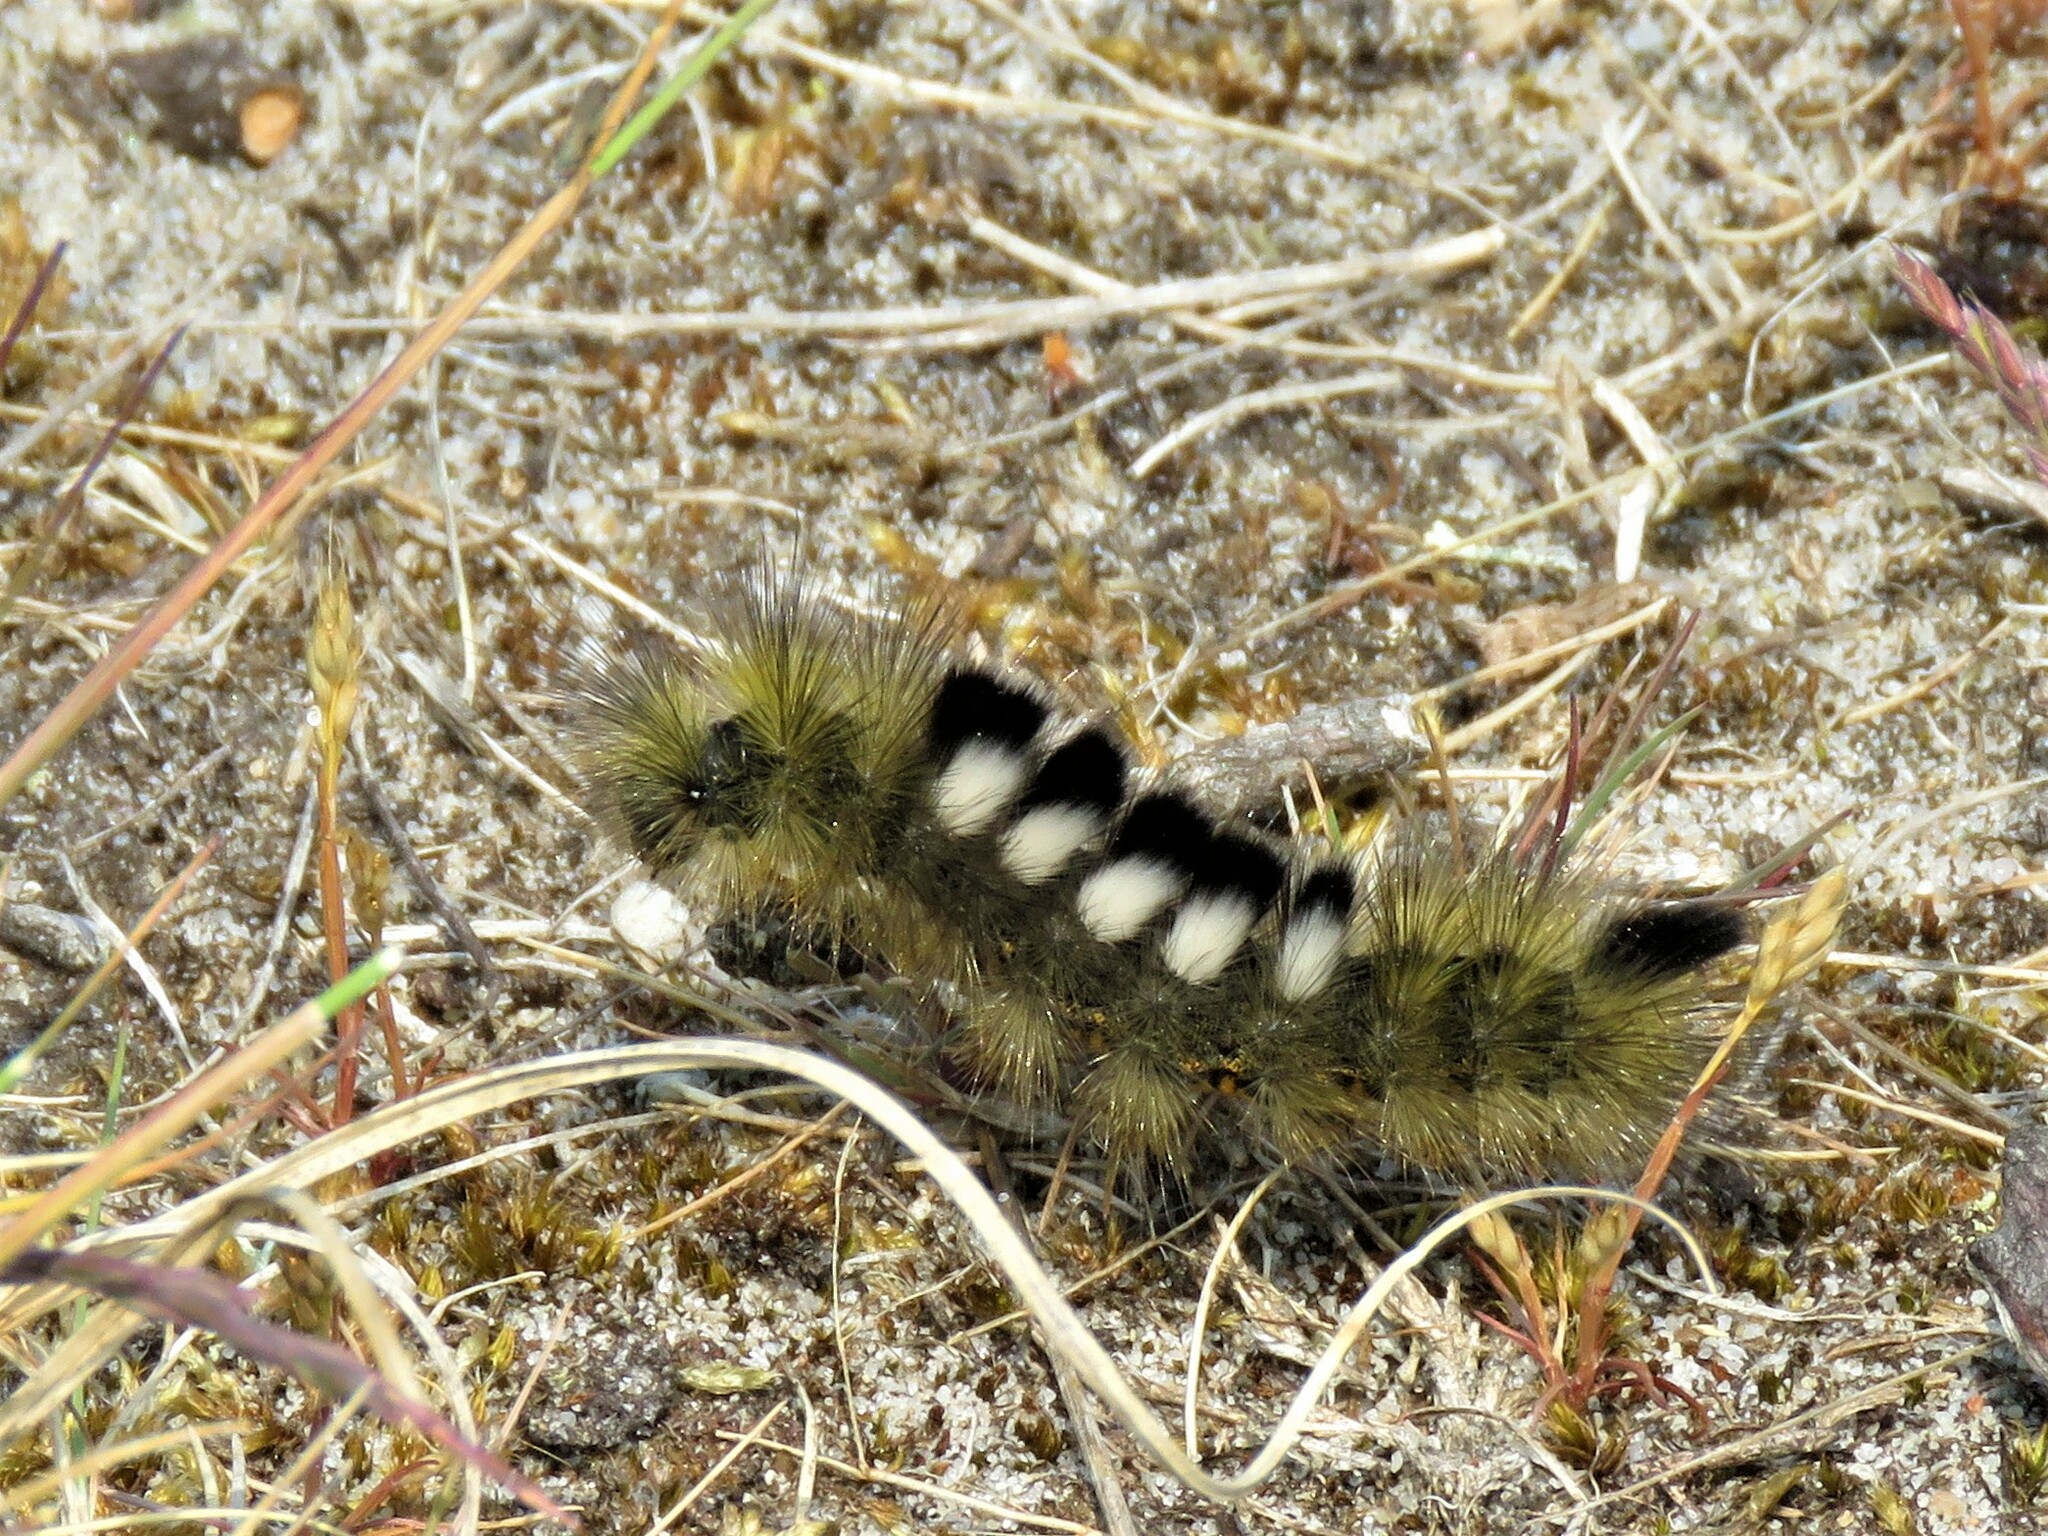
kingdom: Animalia
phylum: Arthropoda
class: Insecta
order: Lepidoptera
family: Erebidae
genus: Calliteara
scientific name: Calliteara Dicallomera fascelina
